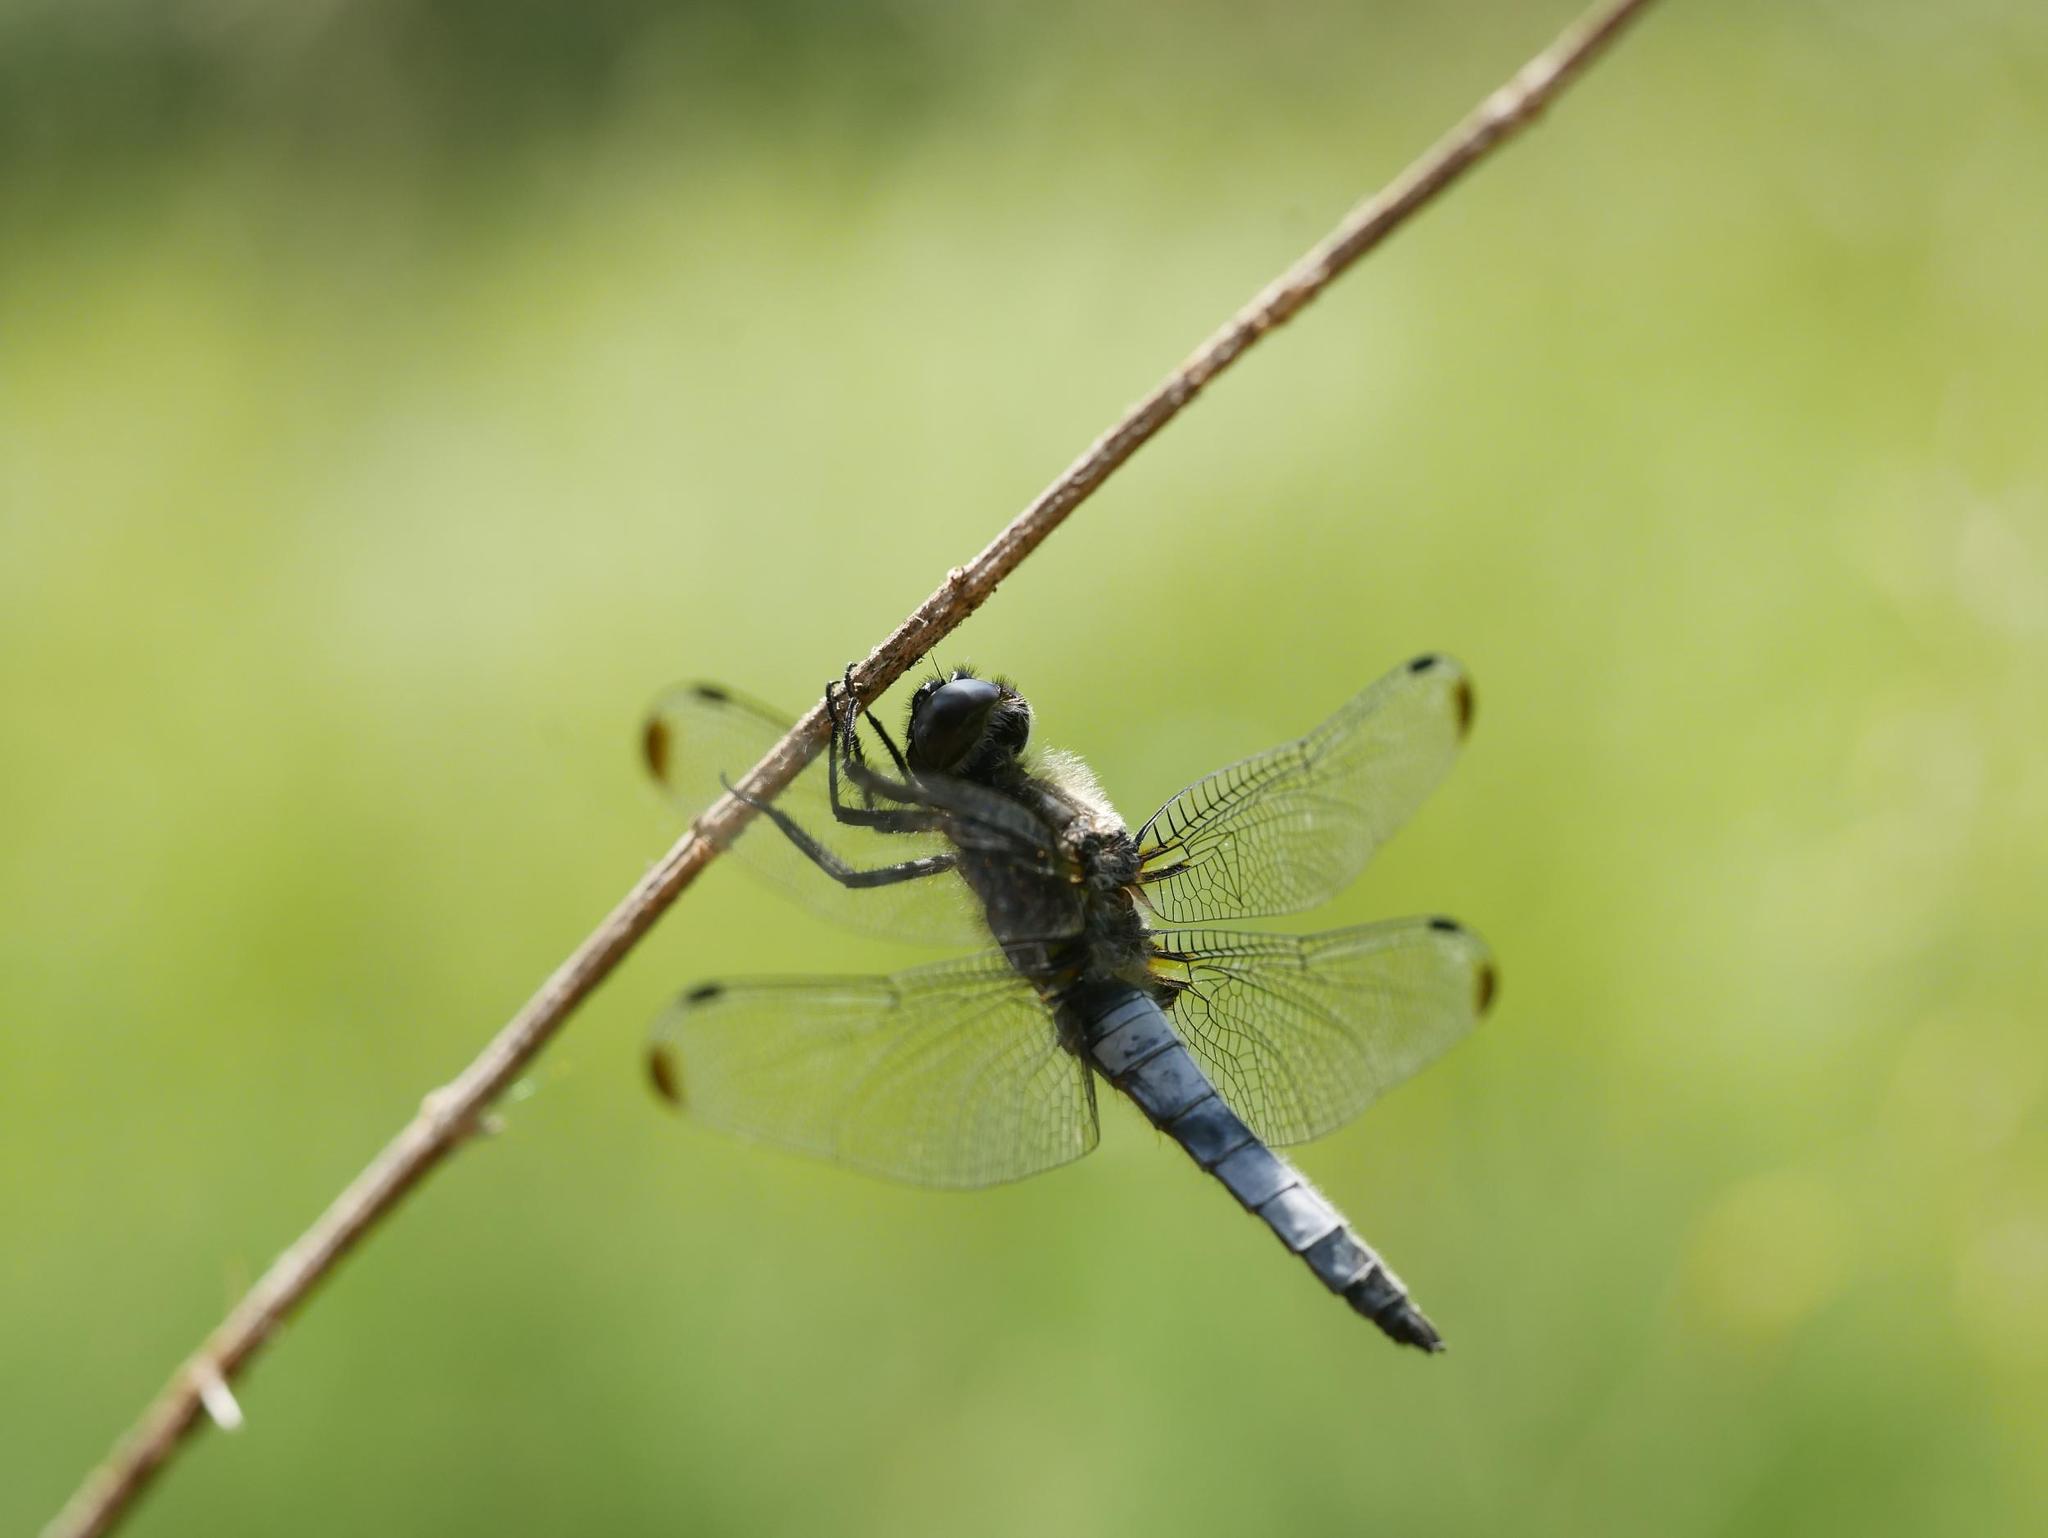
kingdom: Animalia
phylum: Arthropoda
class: Insecta
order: Odonata
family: Libellulidae
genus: Libellula
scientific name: Libellula fulva
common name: Blue chaser
